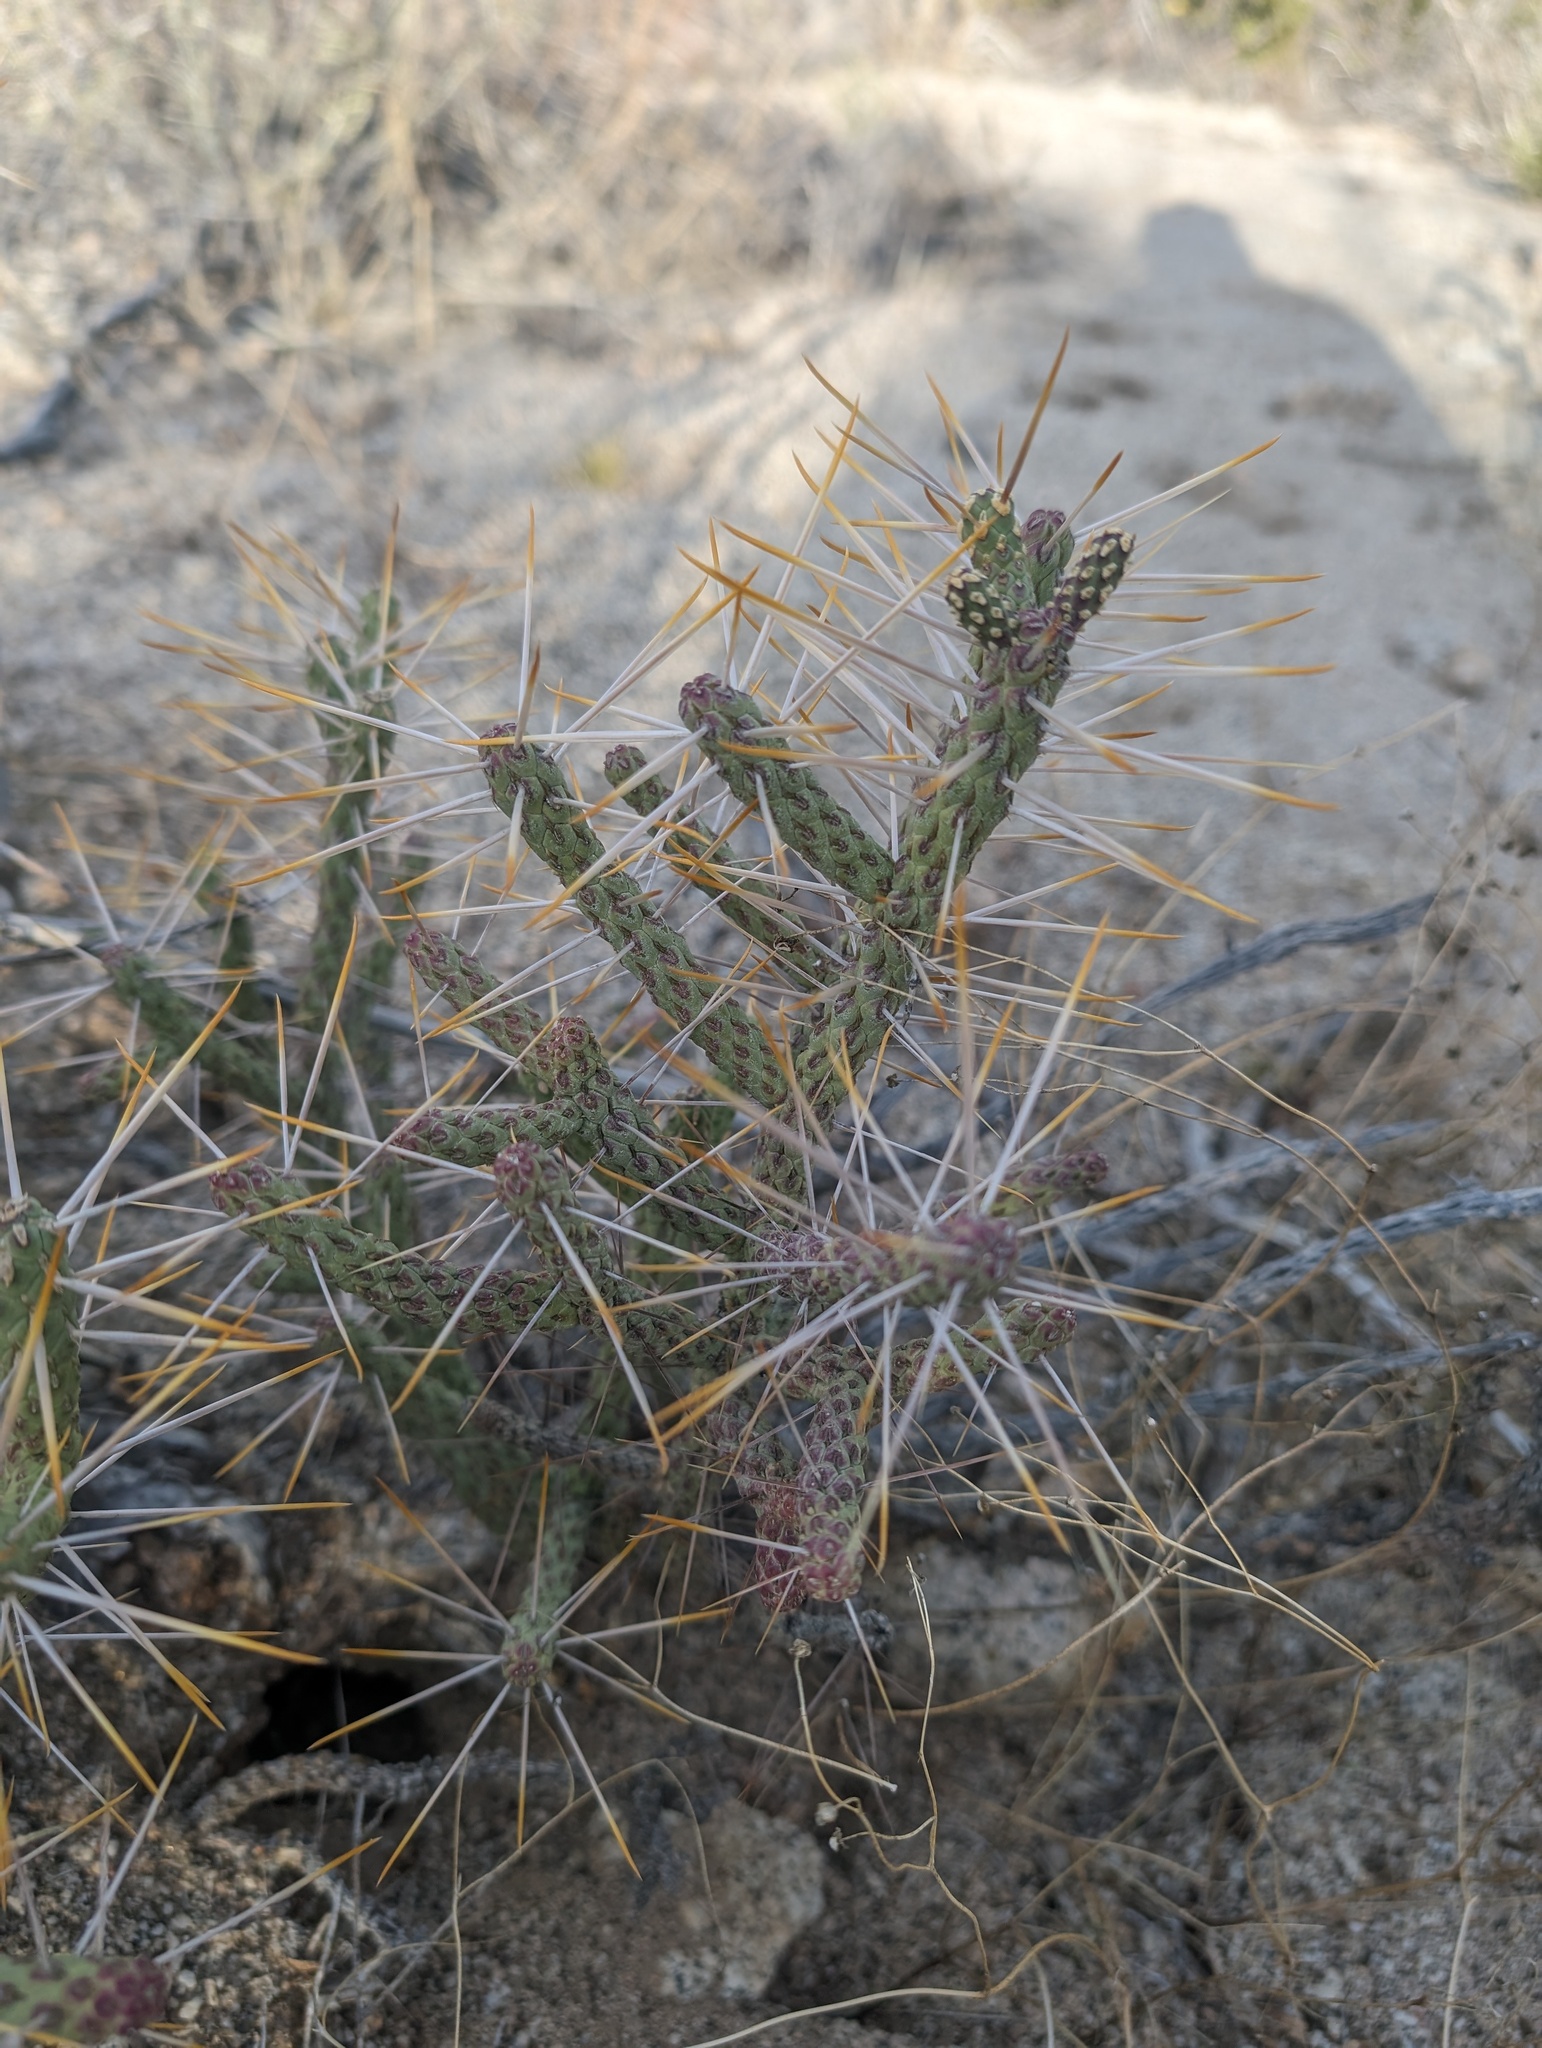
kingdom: Plantae
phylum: Tracheophyta
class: Magnoliopsida
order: Caryophyllales
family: Cactaceae
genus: Cylindropuntia
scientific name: Cylindropuntia ramosissima
